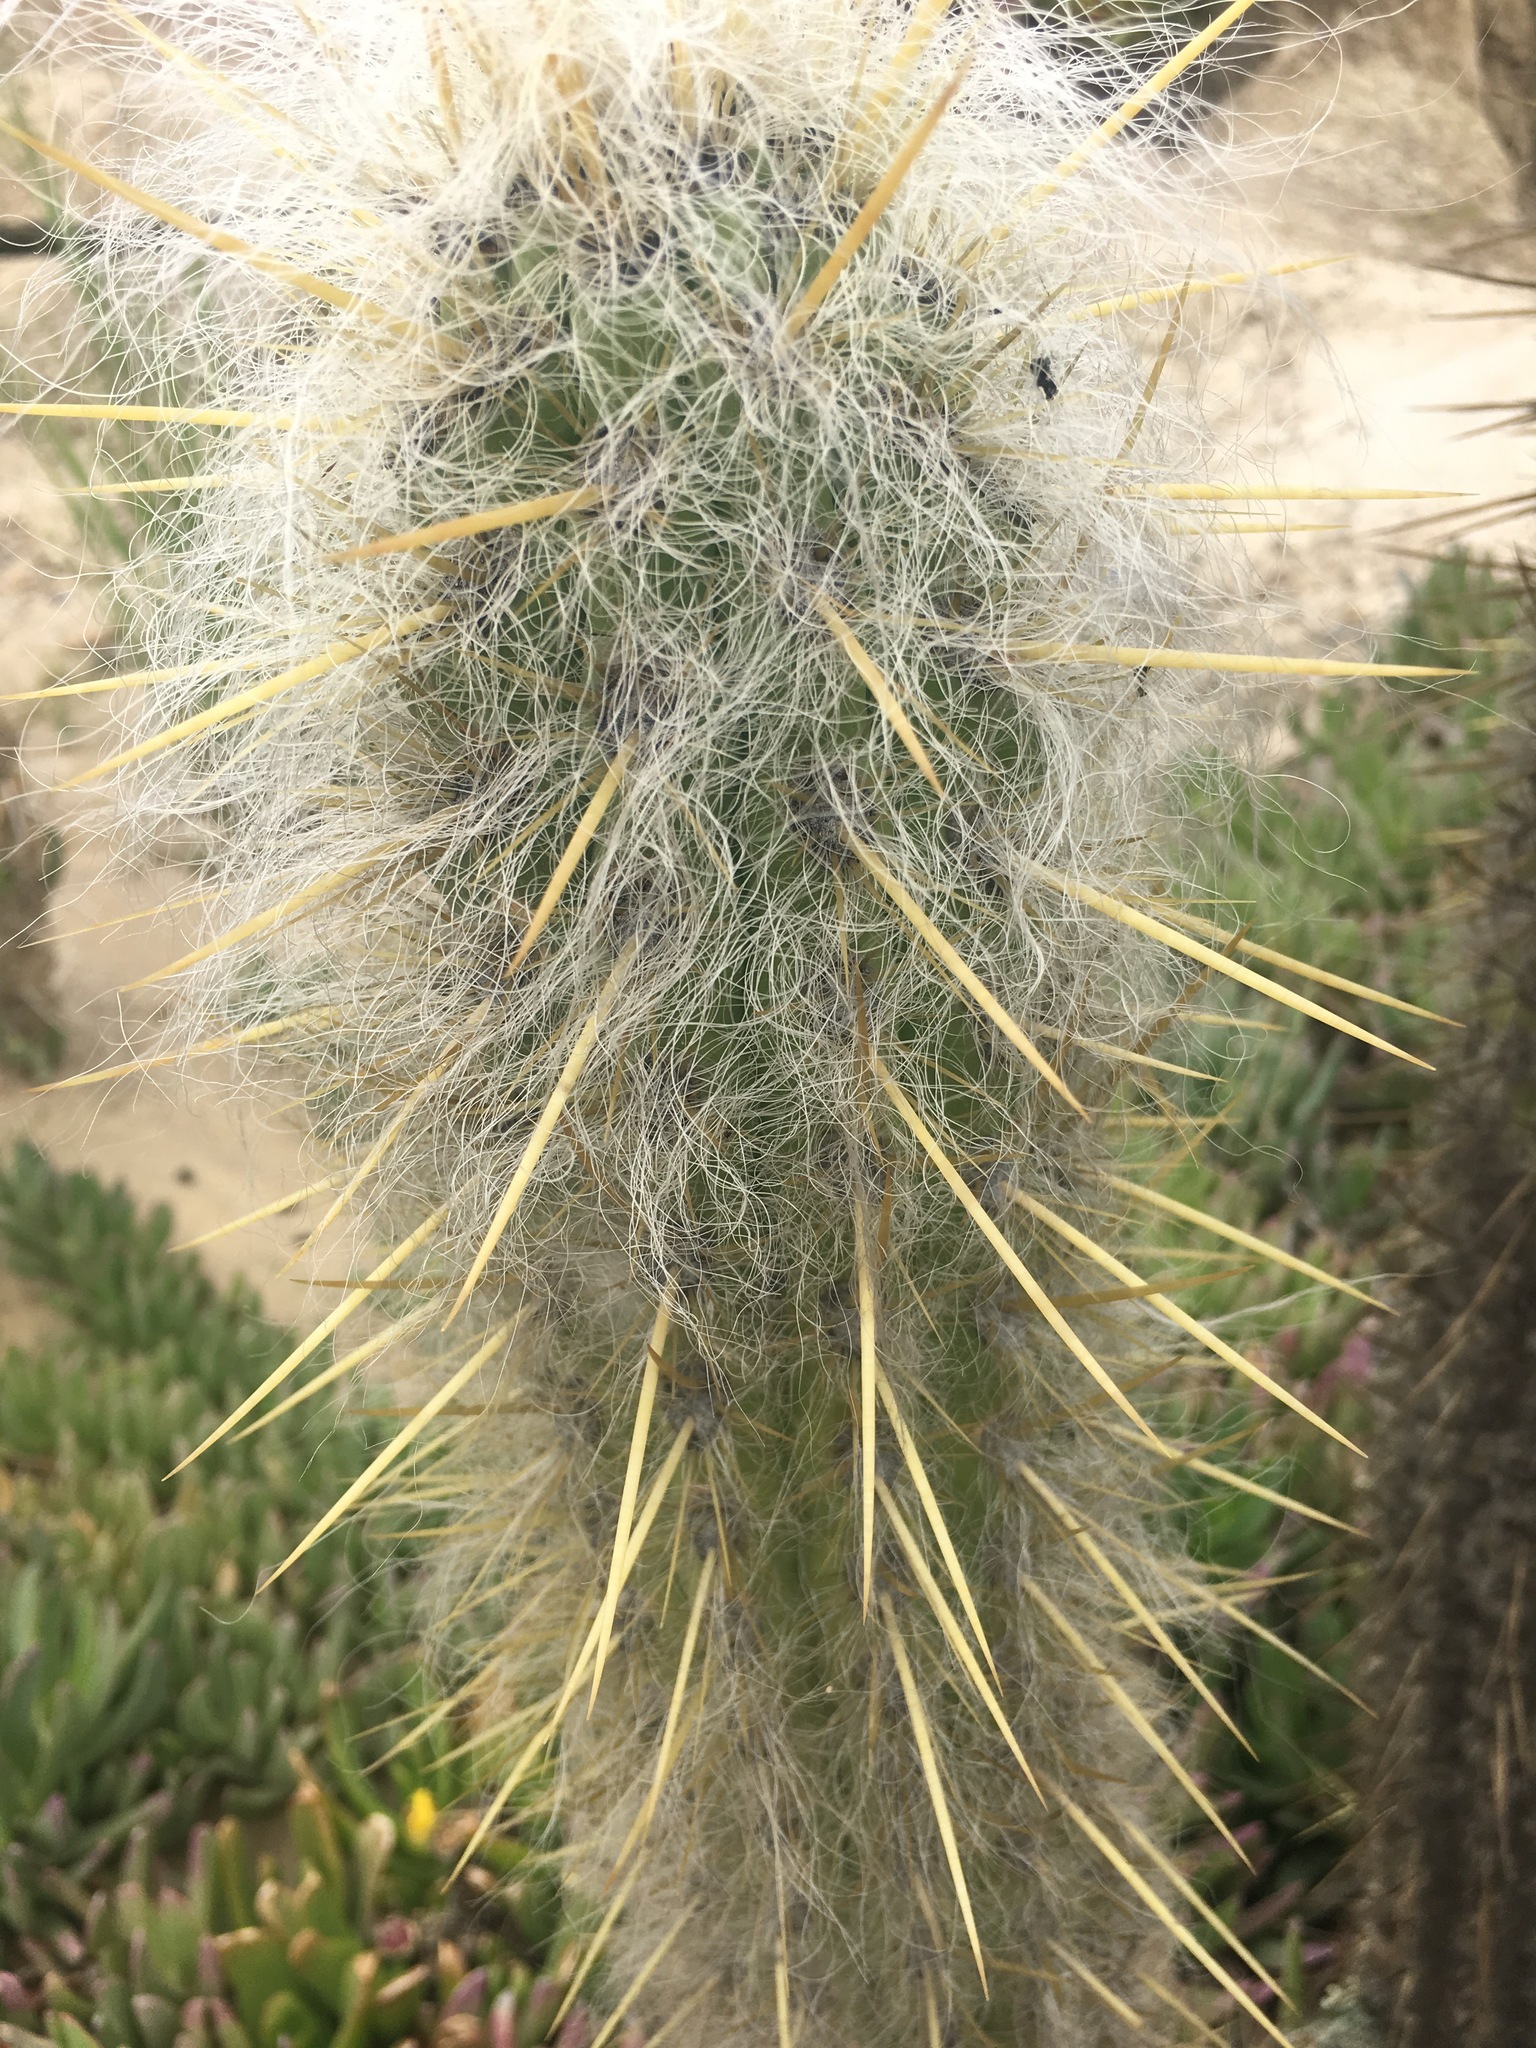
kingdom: Plantae
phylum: Tracheophyta
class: Magnoliopsida
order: Caryophyllales
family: Cactaceae
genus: Oreocereus
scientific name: Oreocereus pseudofossulatus
